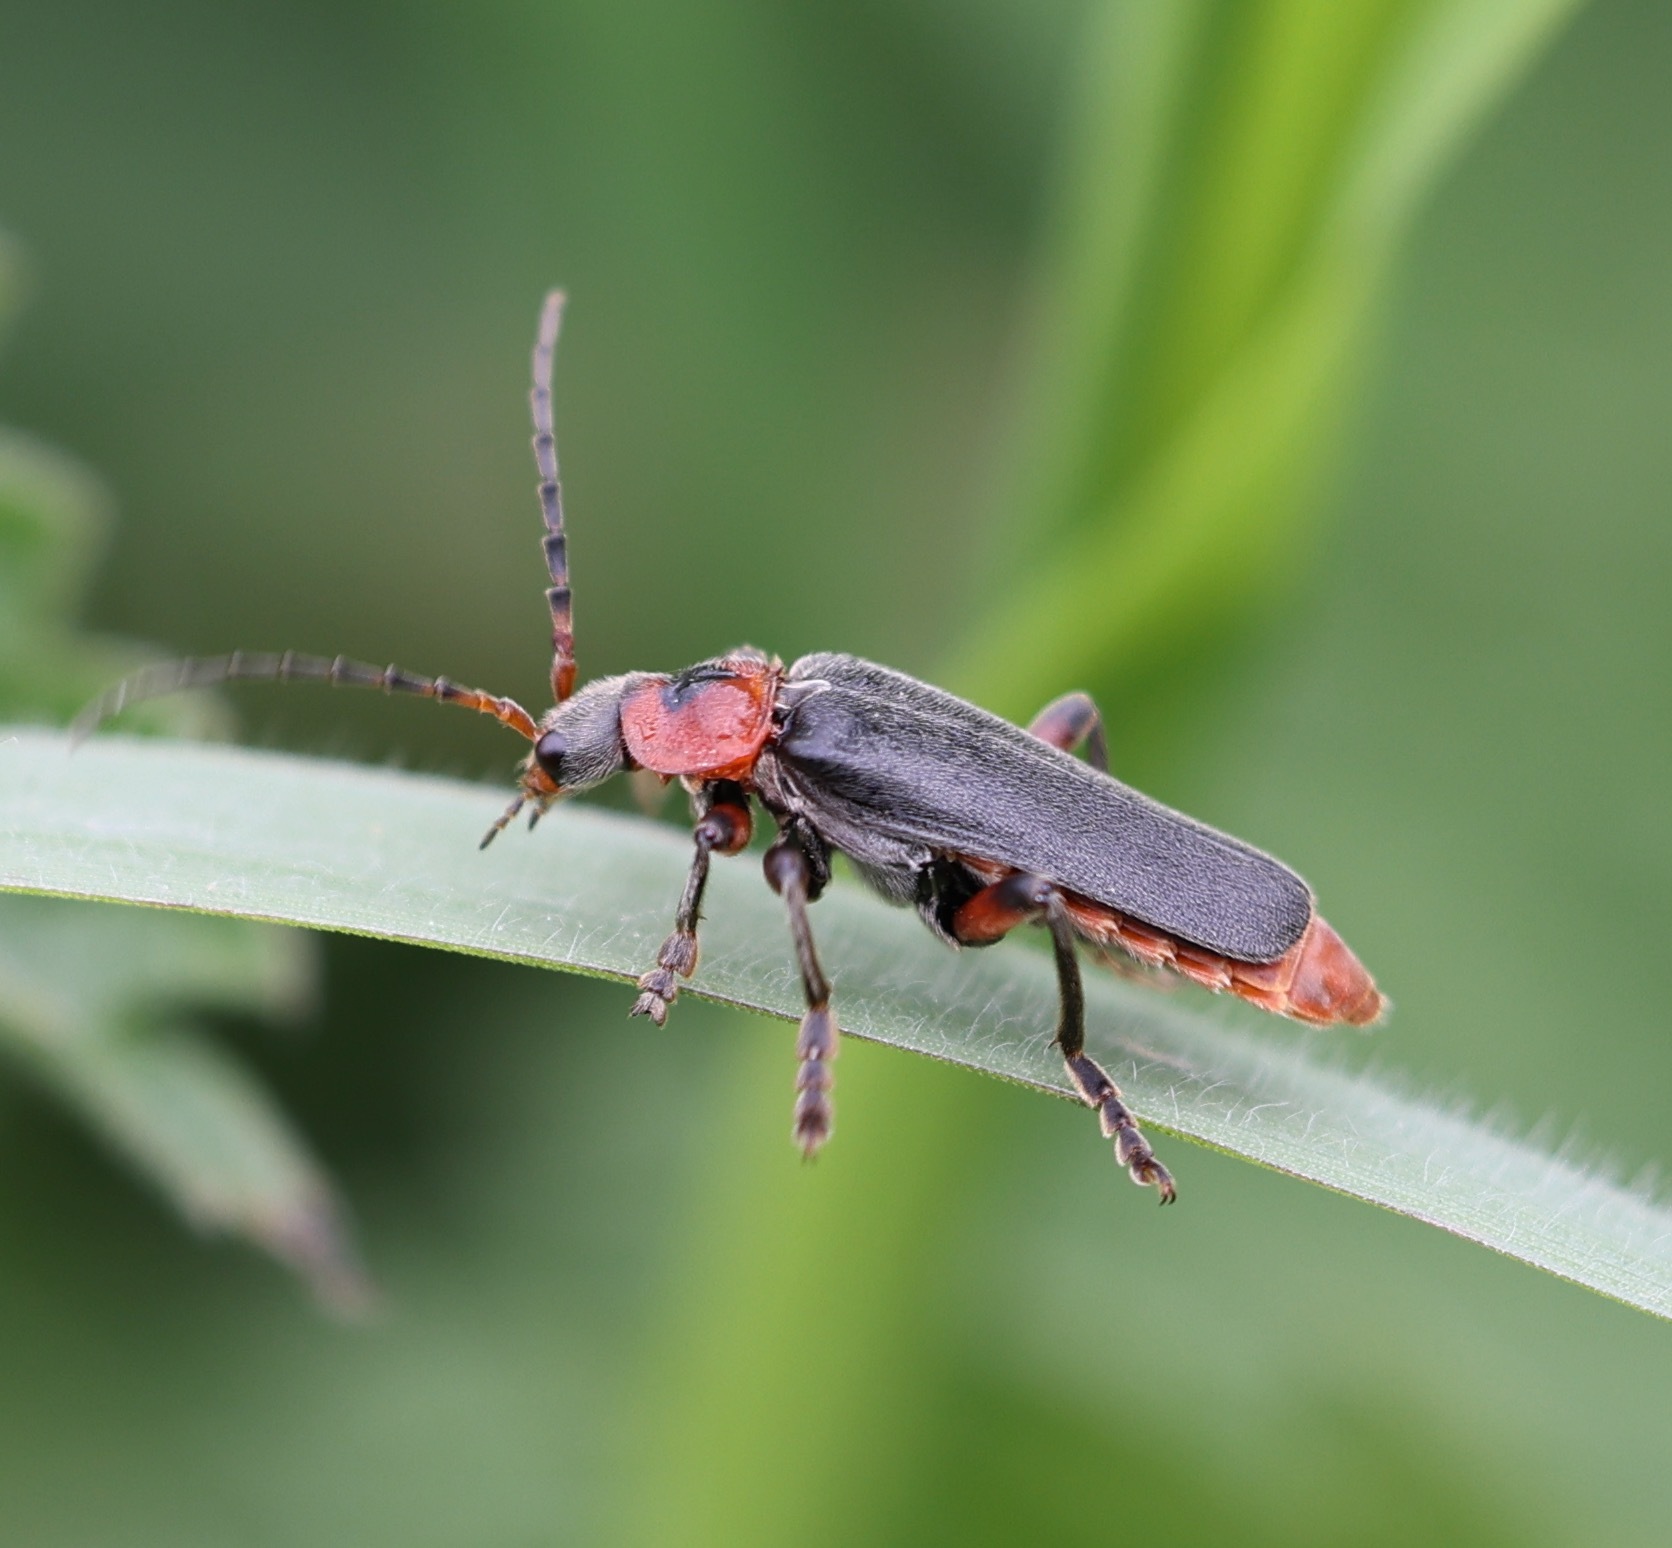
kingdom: Animalia
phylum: Arthropoda
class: Insecta
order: Coleoptera
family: Cantharidae
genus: Cantharis
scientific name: Cantharis rustica
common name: Soldier beetle
